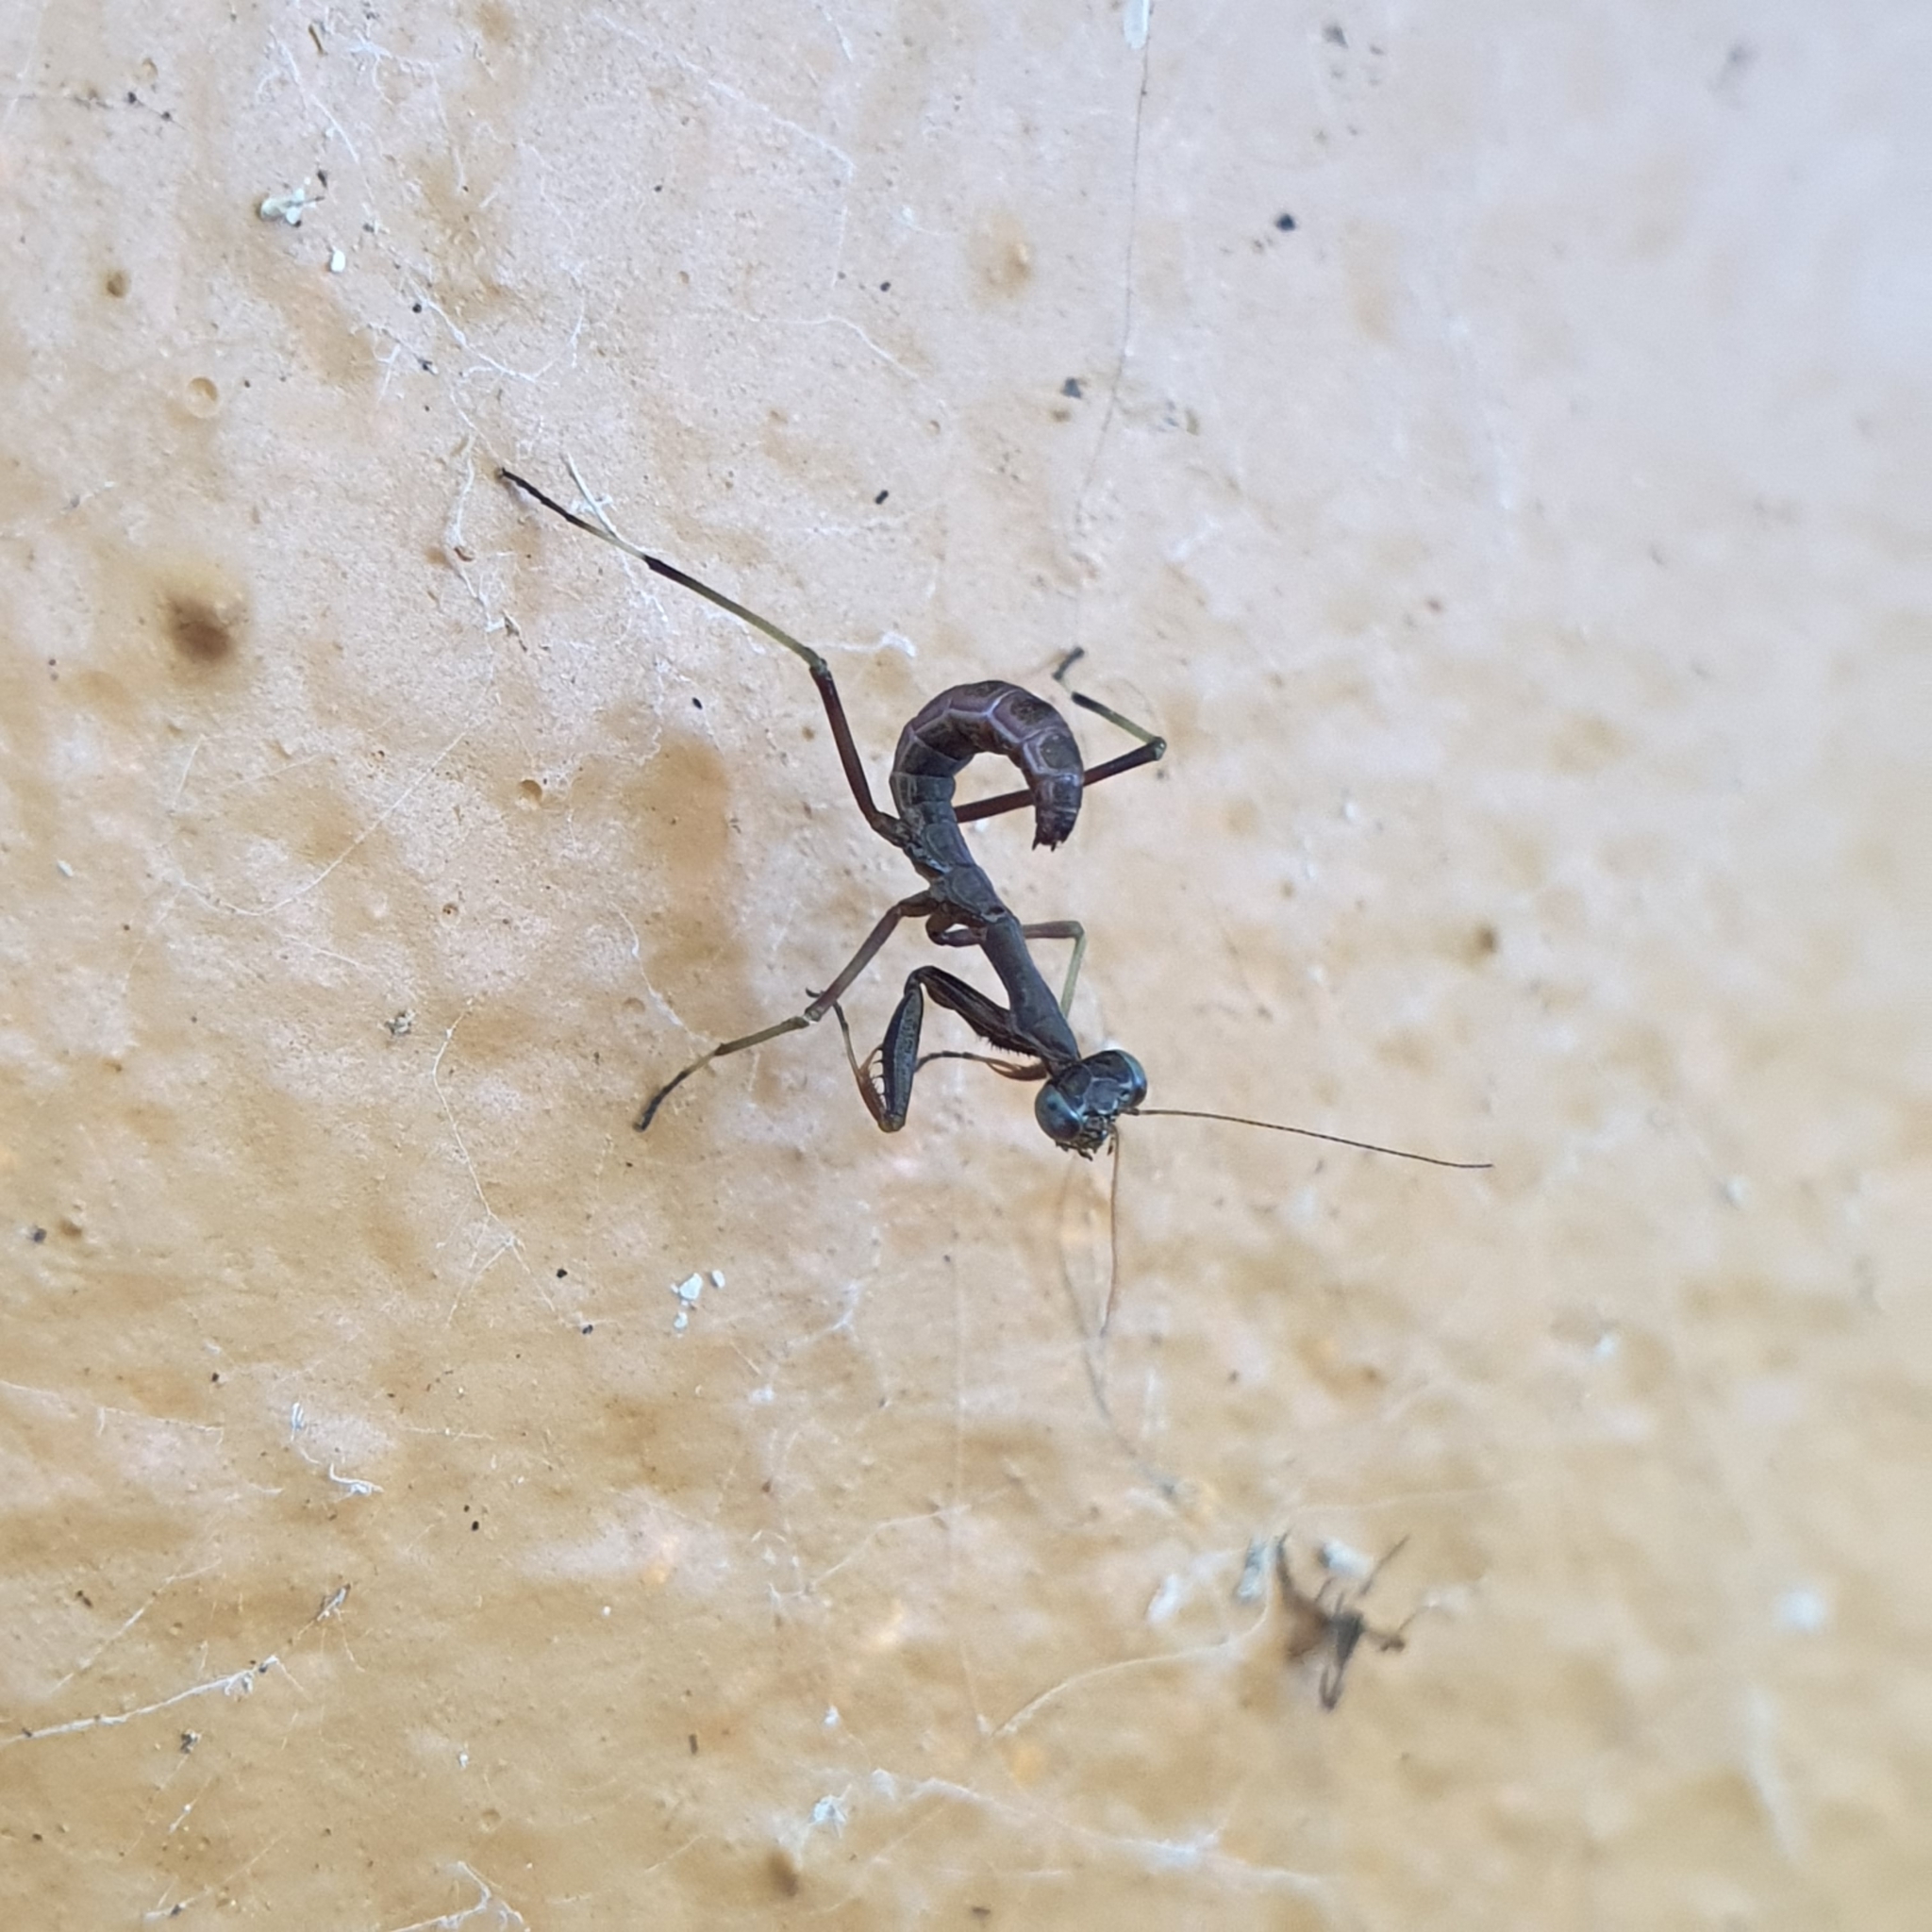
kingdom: Animalia
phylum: Arthropoda
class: Insecta
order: Mantodea
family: Mantidae
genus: Pseudomantis
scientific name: Pseudomantis albofimbriata
